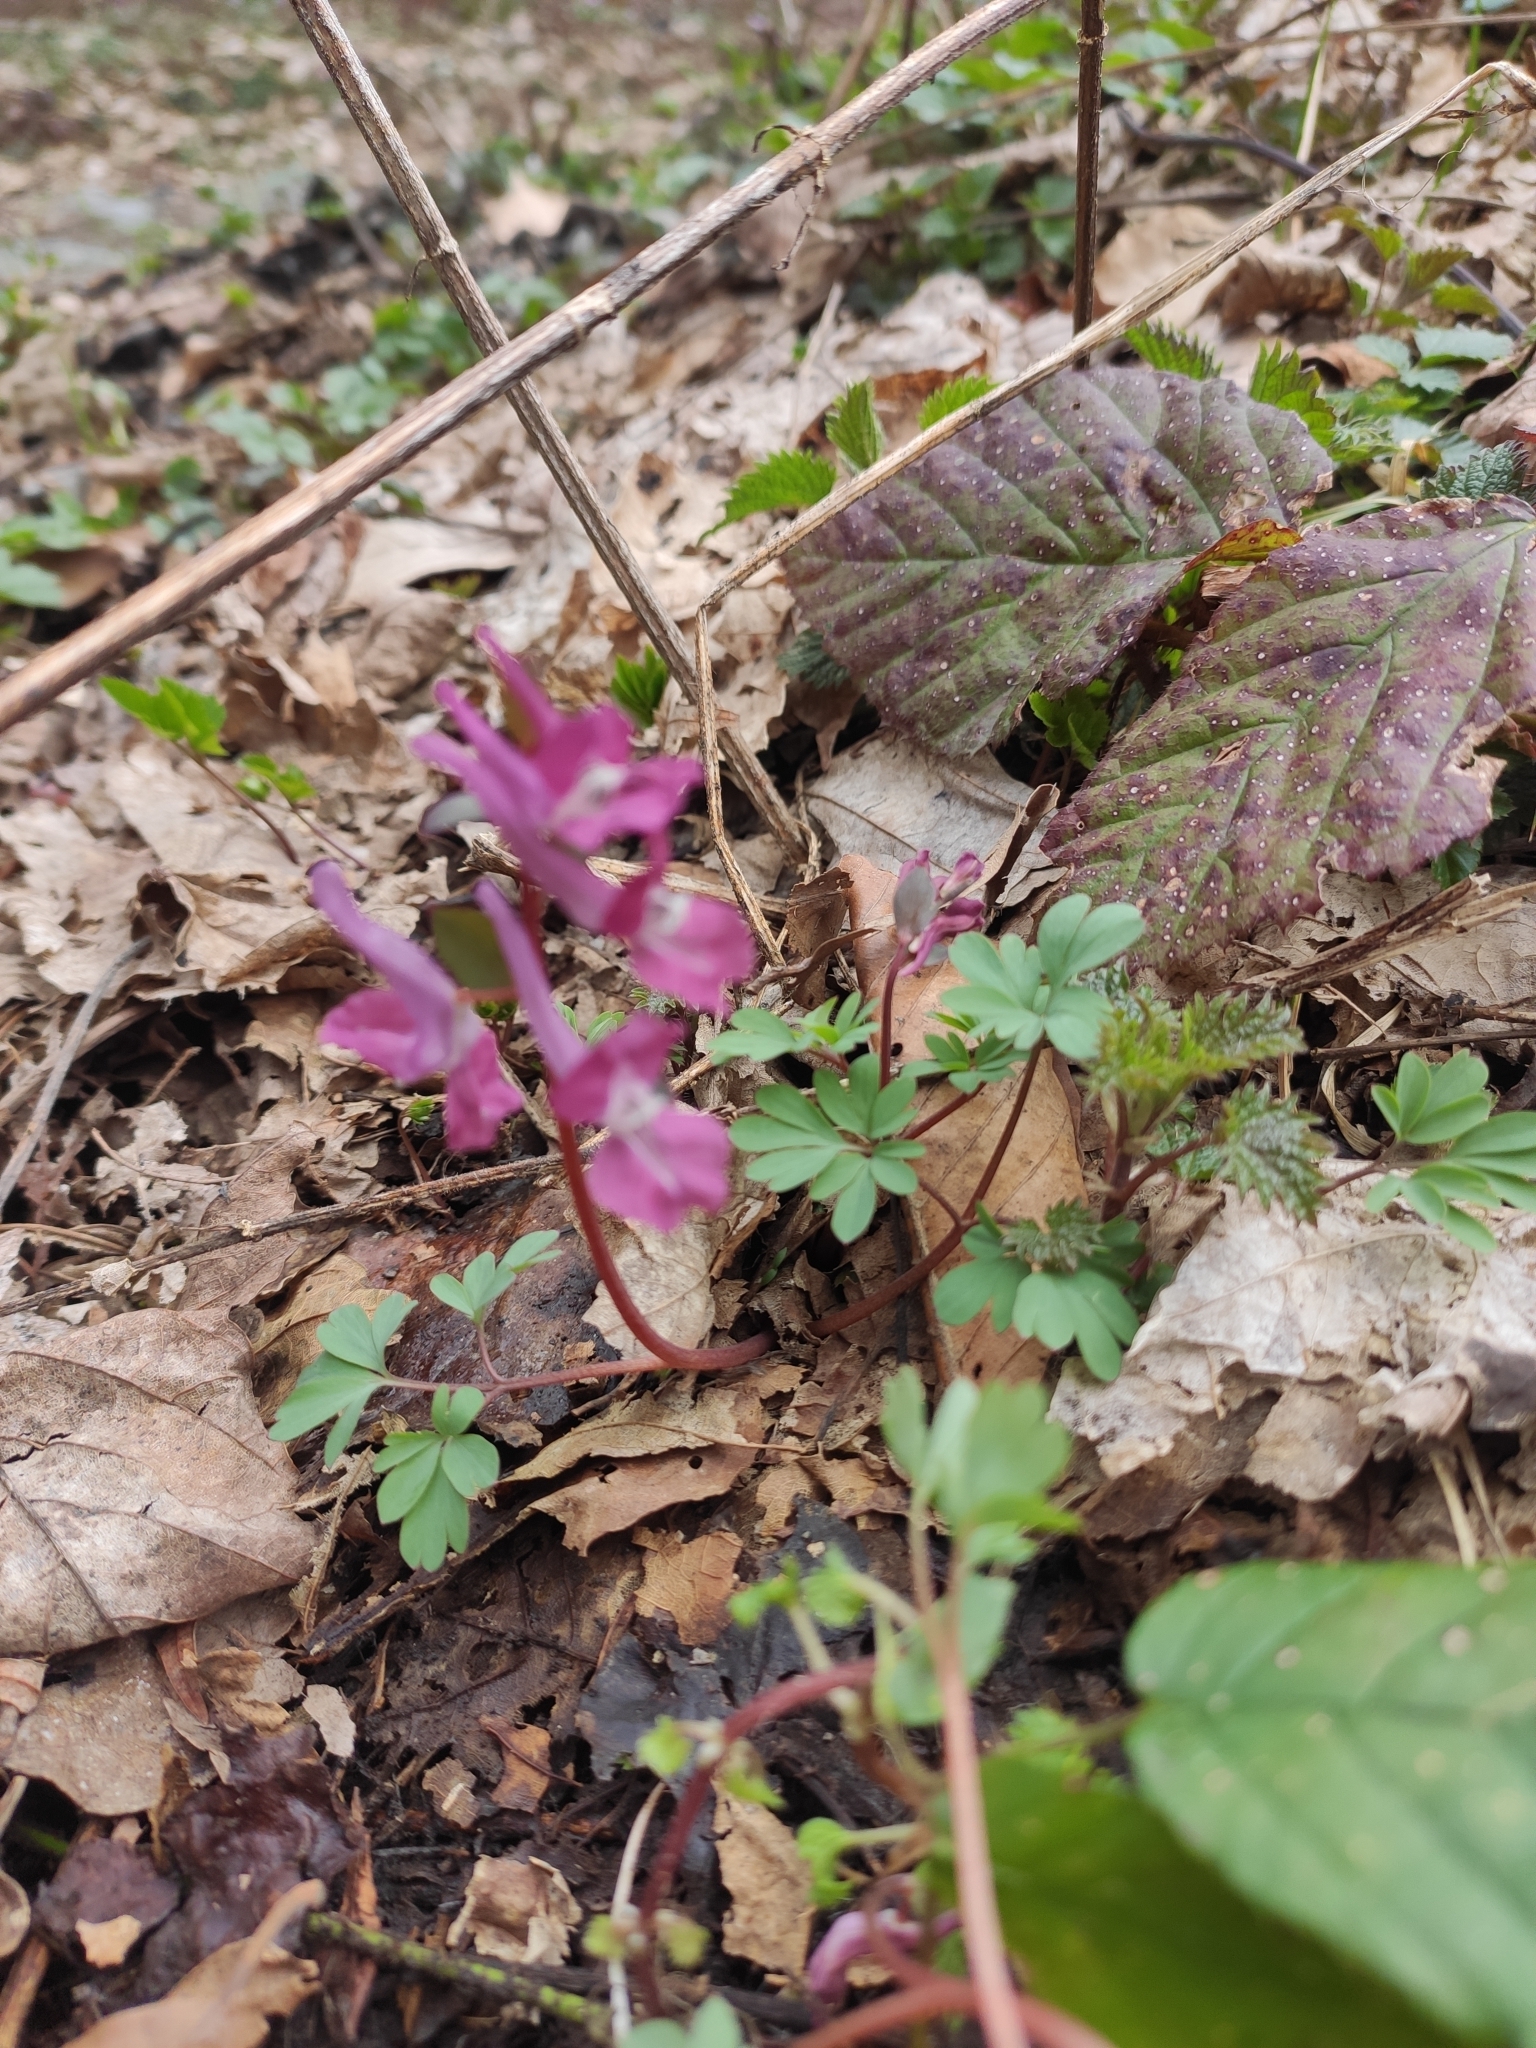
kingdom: Plantae
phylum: Tracheophyta
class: Magnoliopsida
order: Ranunculales
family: Papaveraceae
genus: Corydalis
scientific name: Corydalis caucasica
